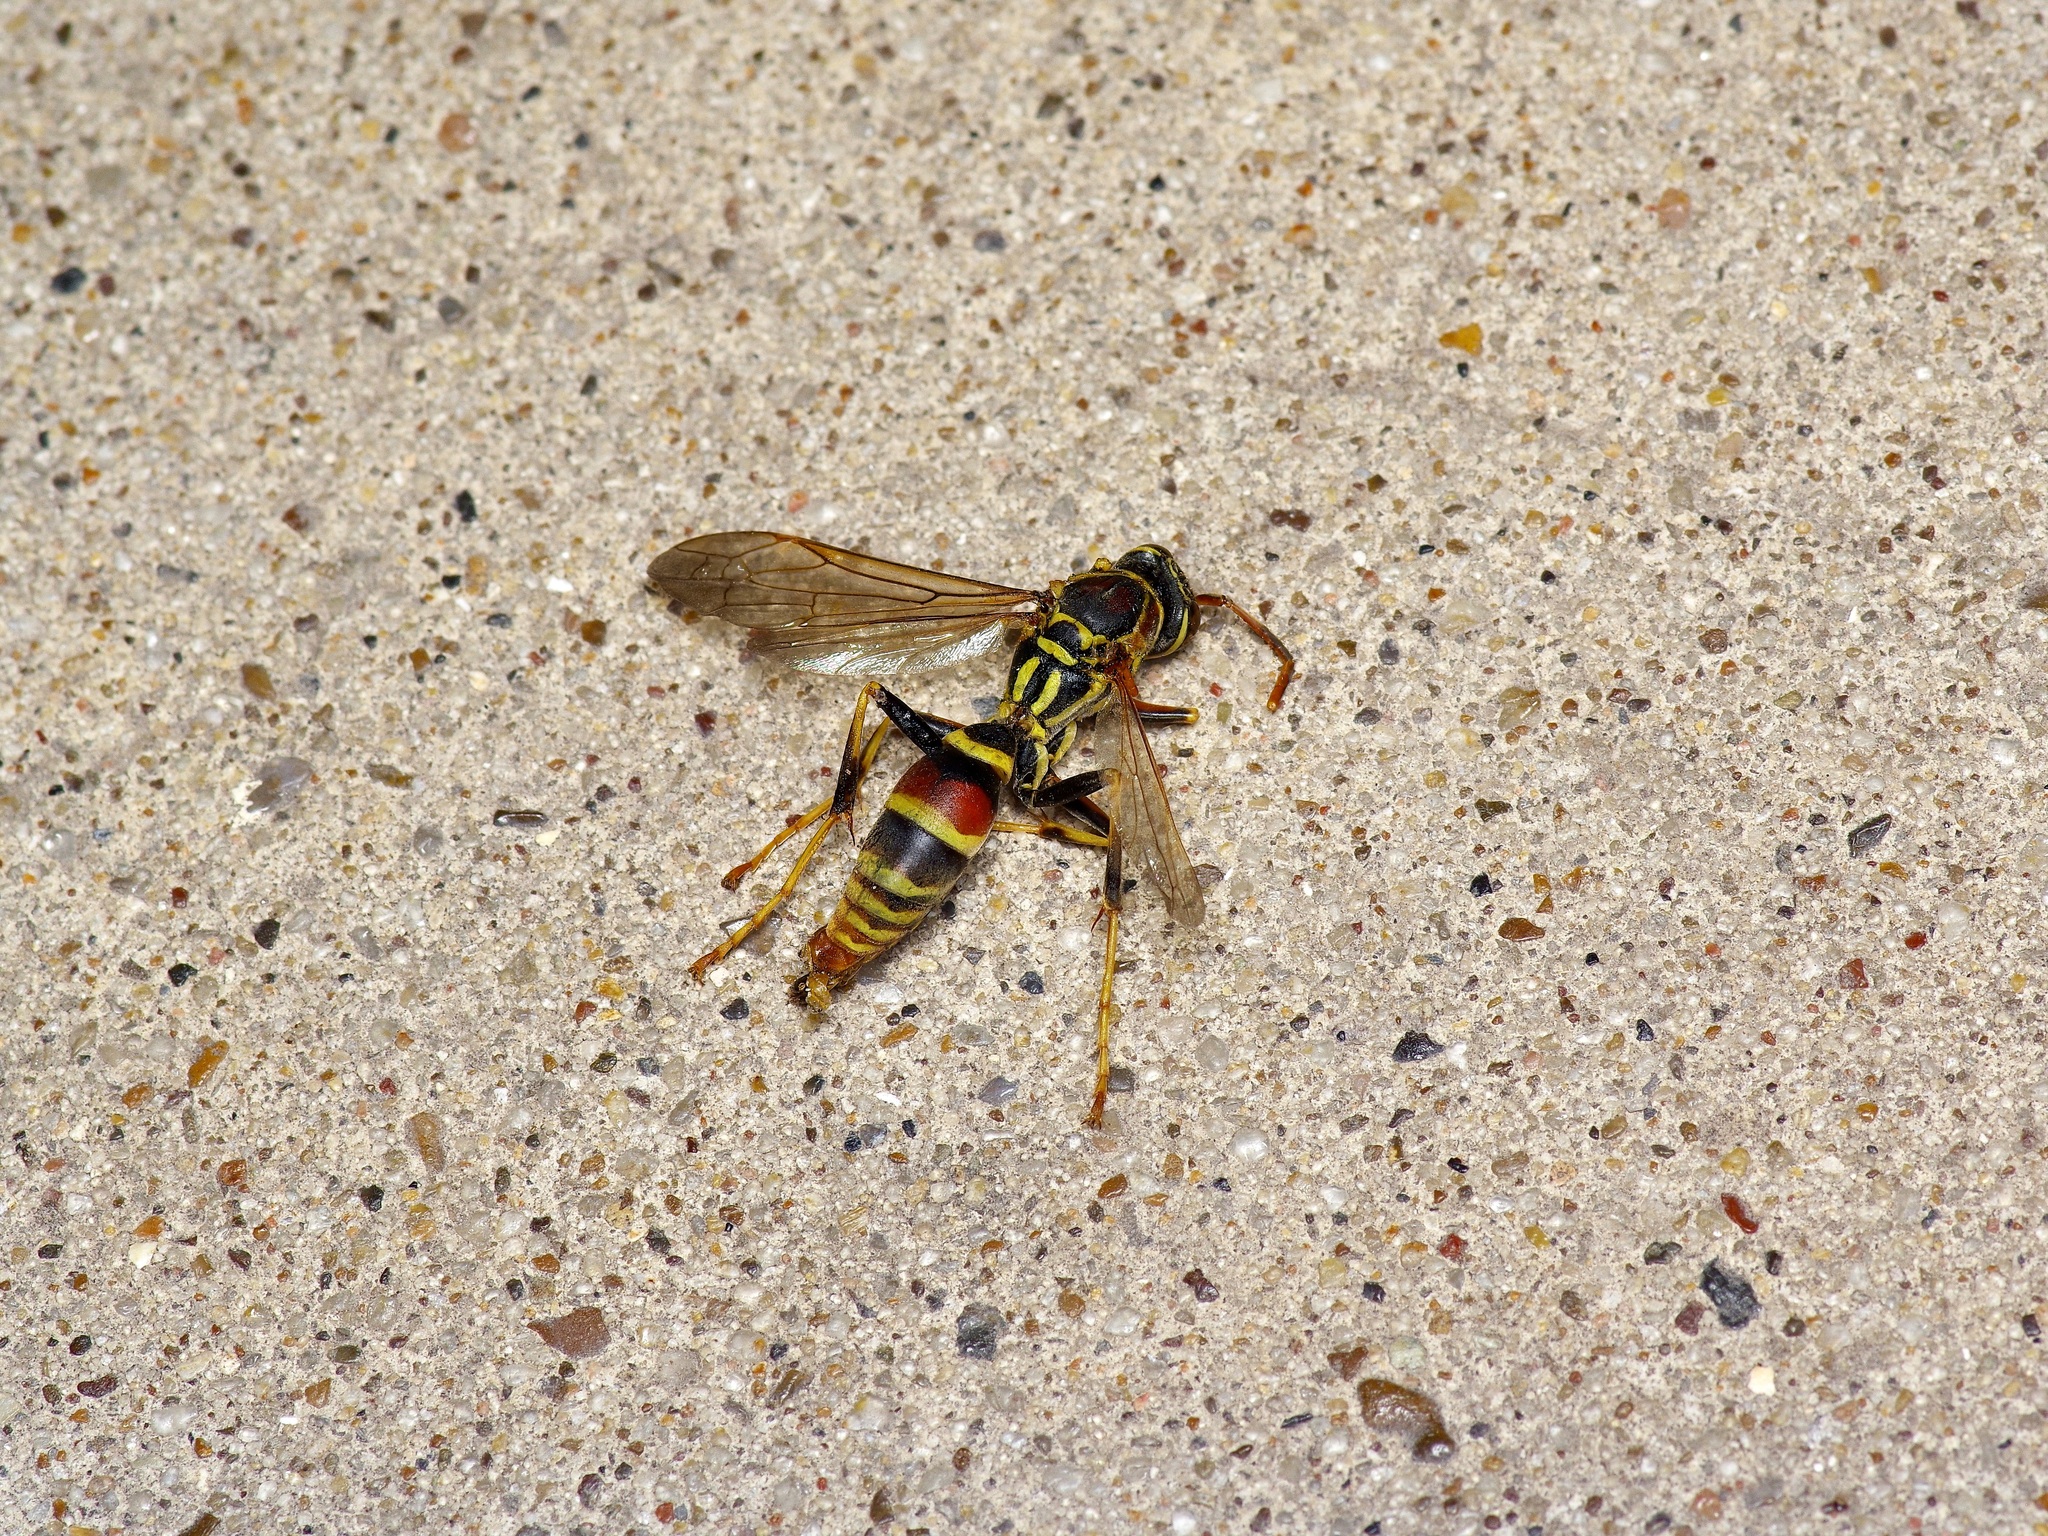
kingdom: Animalia
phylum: Arthropoda
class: Insecta
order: Hymenoptera
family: Eumenidae
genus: Polistes
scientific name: Polistes exclamans
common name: Paper wasp
